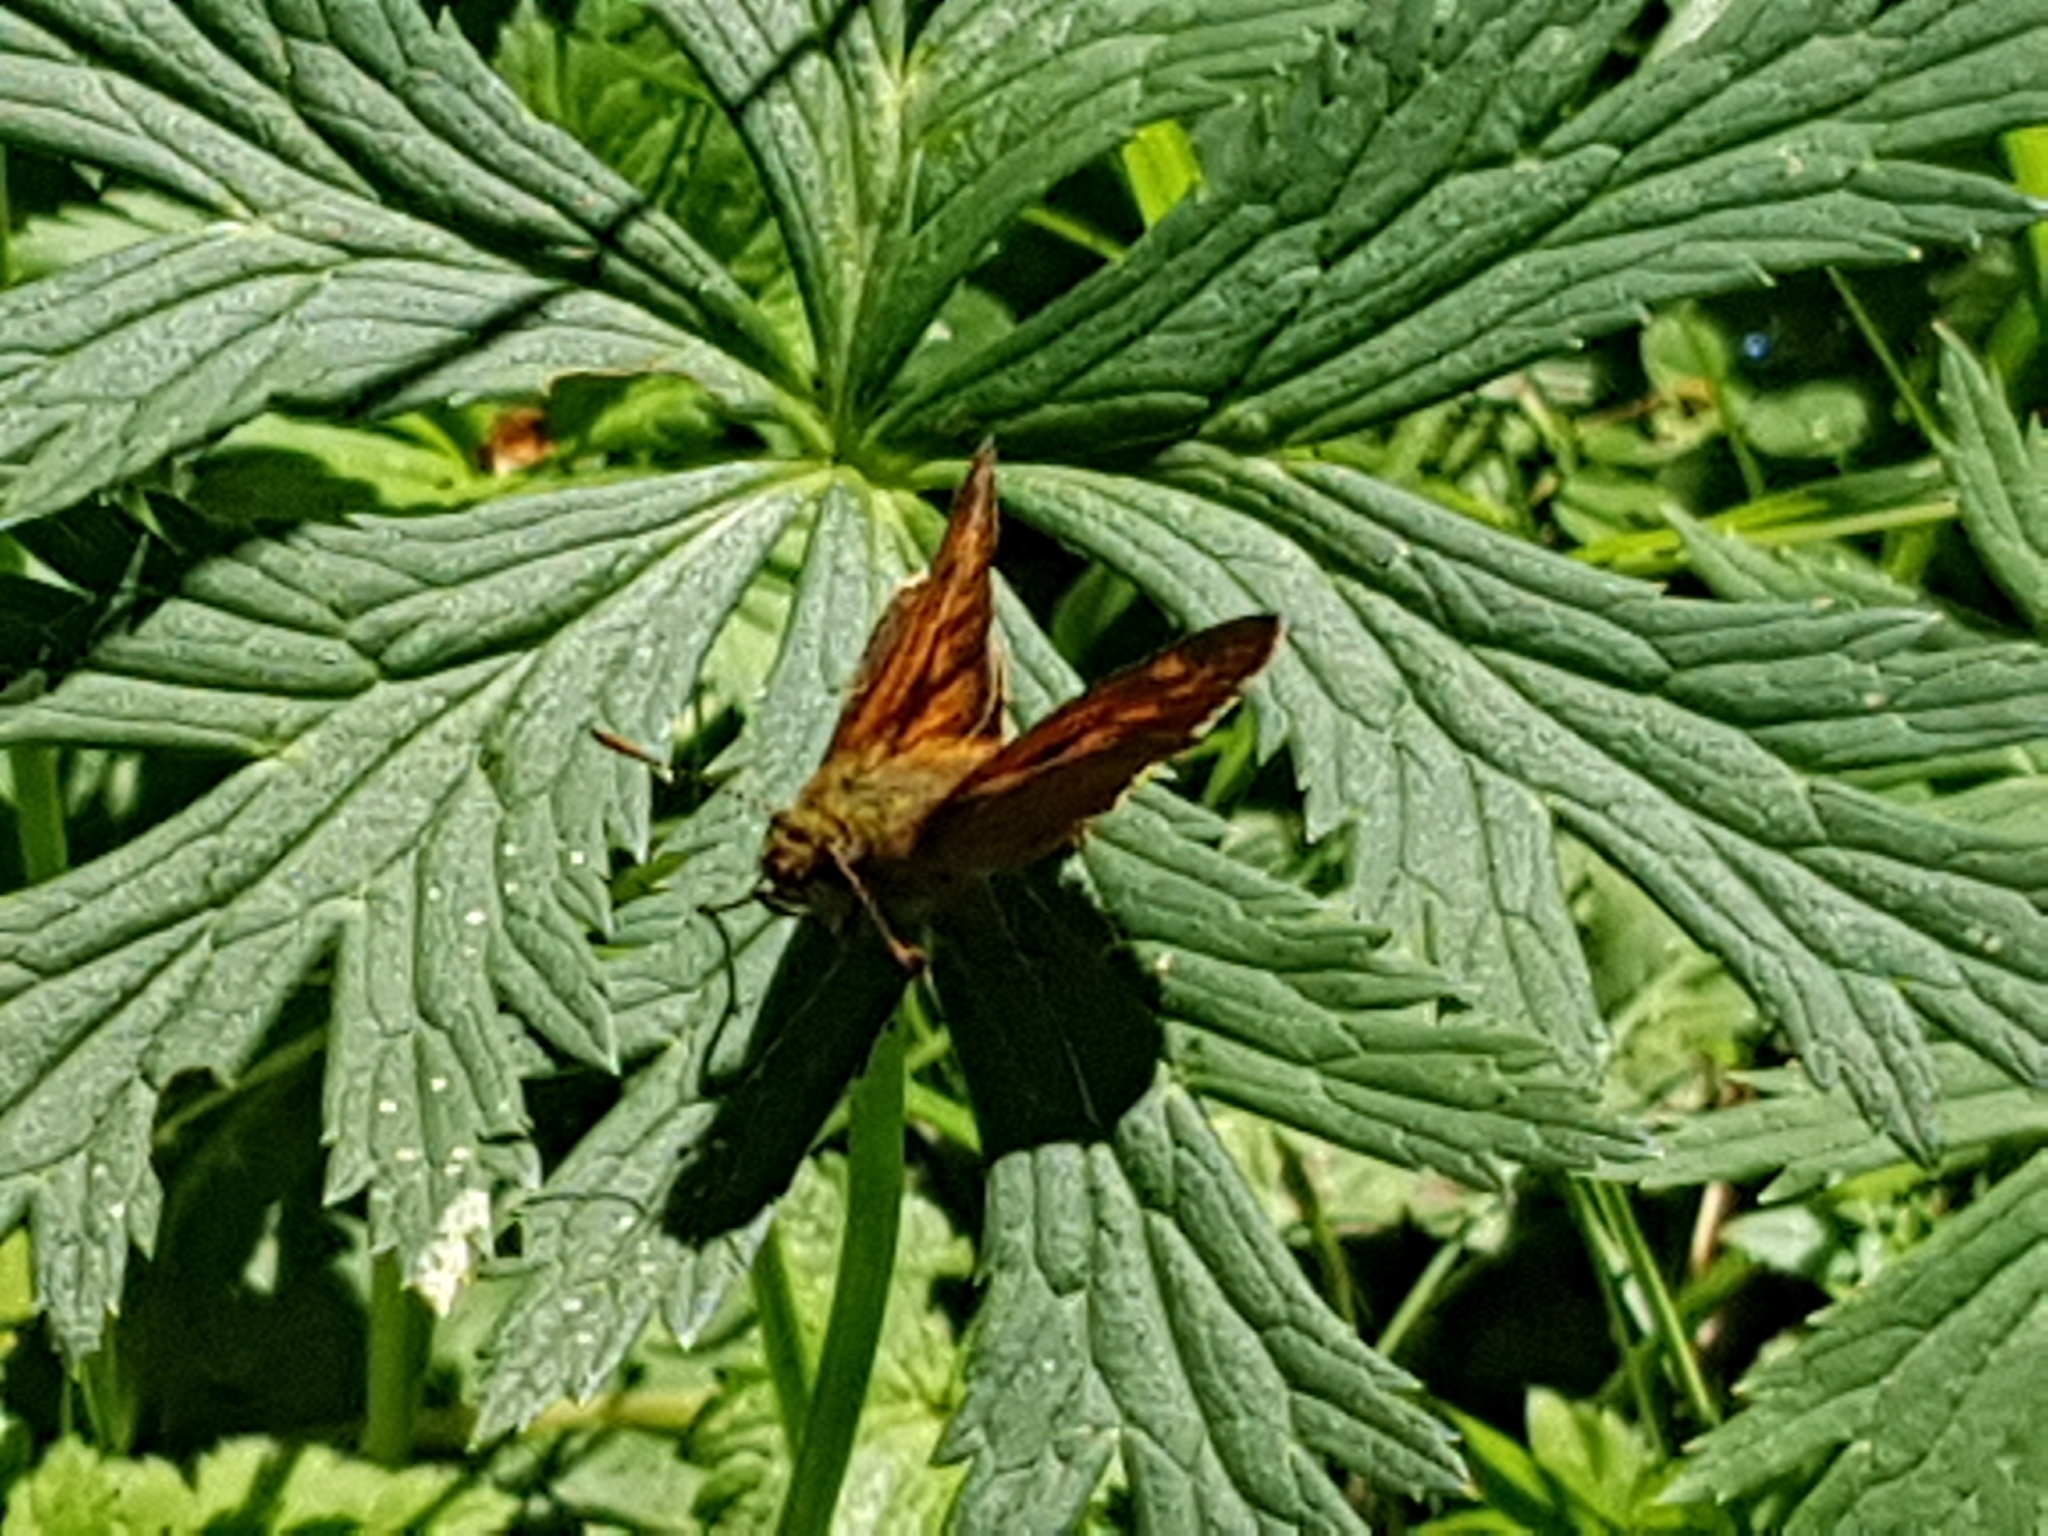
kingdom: Animalia
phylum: Arthropoda
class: Insecta
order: Lepidoptera
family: Hesperiidae
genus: Ochlodes
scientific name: Ochlodes venata
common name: Large skipper
